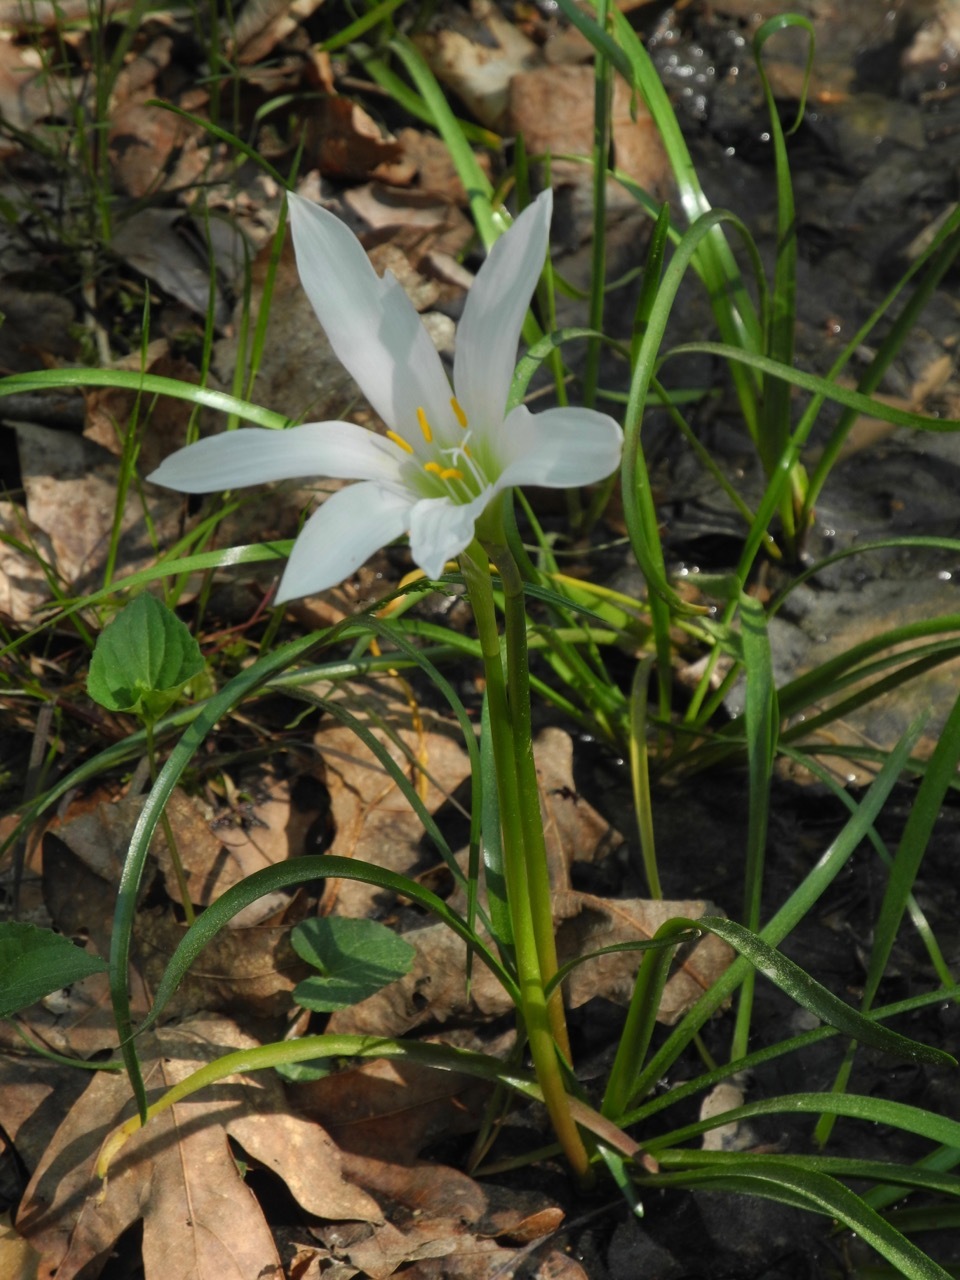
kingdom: Plantae
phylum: Tracheophyta
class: Liliopsida
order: Asparagales
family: Amaryllidaceae
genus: Zephyranthes
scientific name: Zephyranthes atamasco
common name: Atamasco lily
